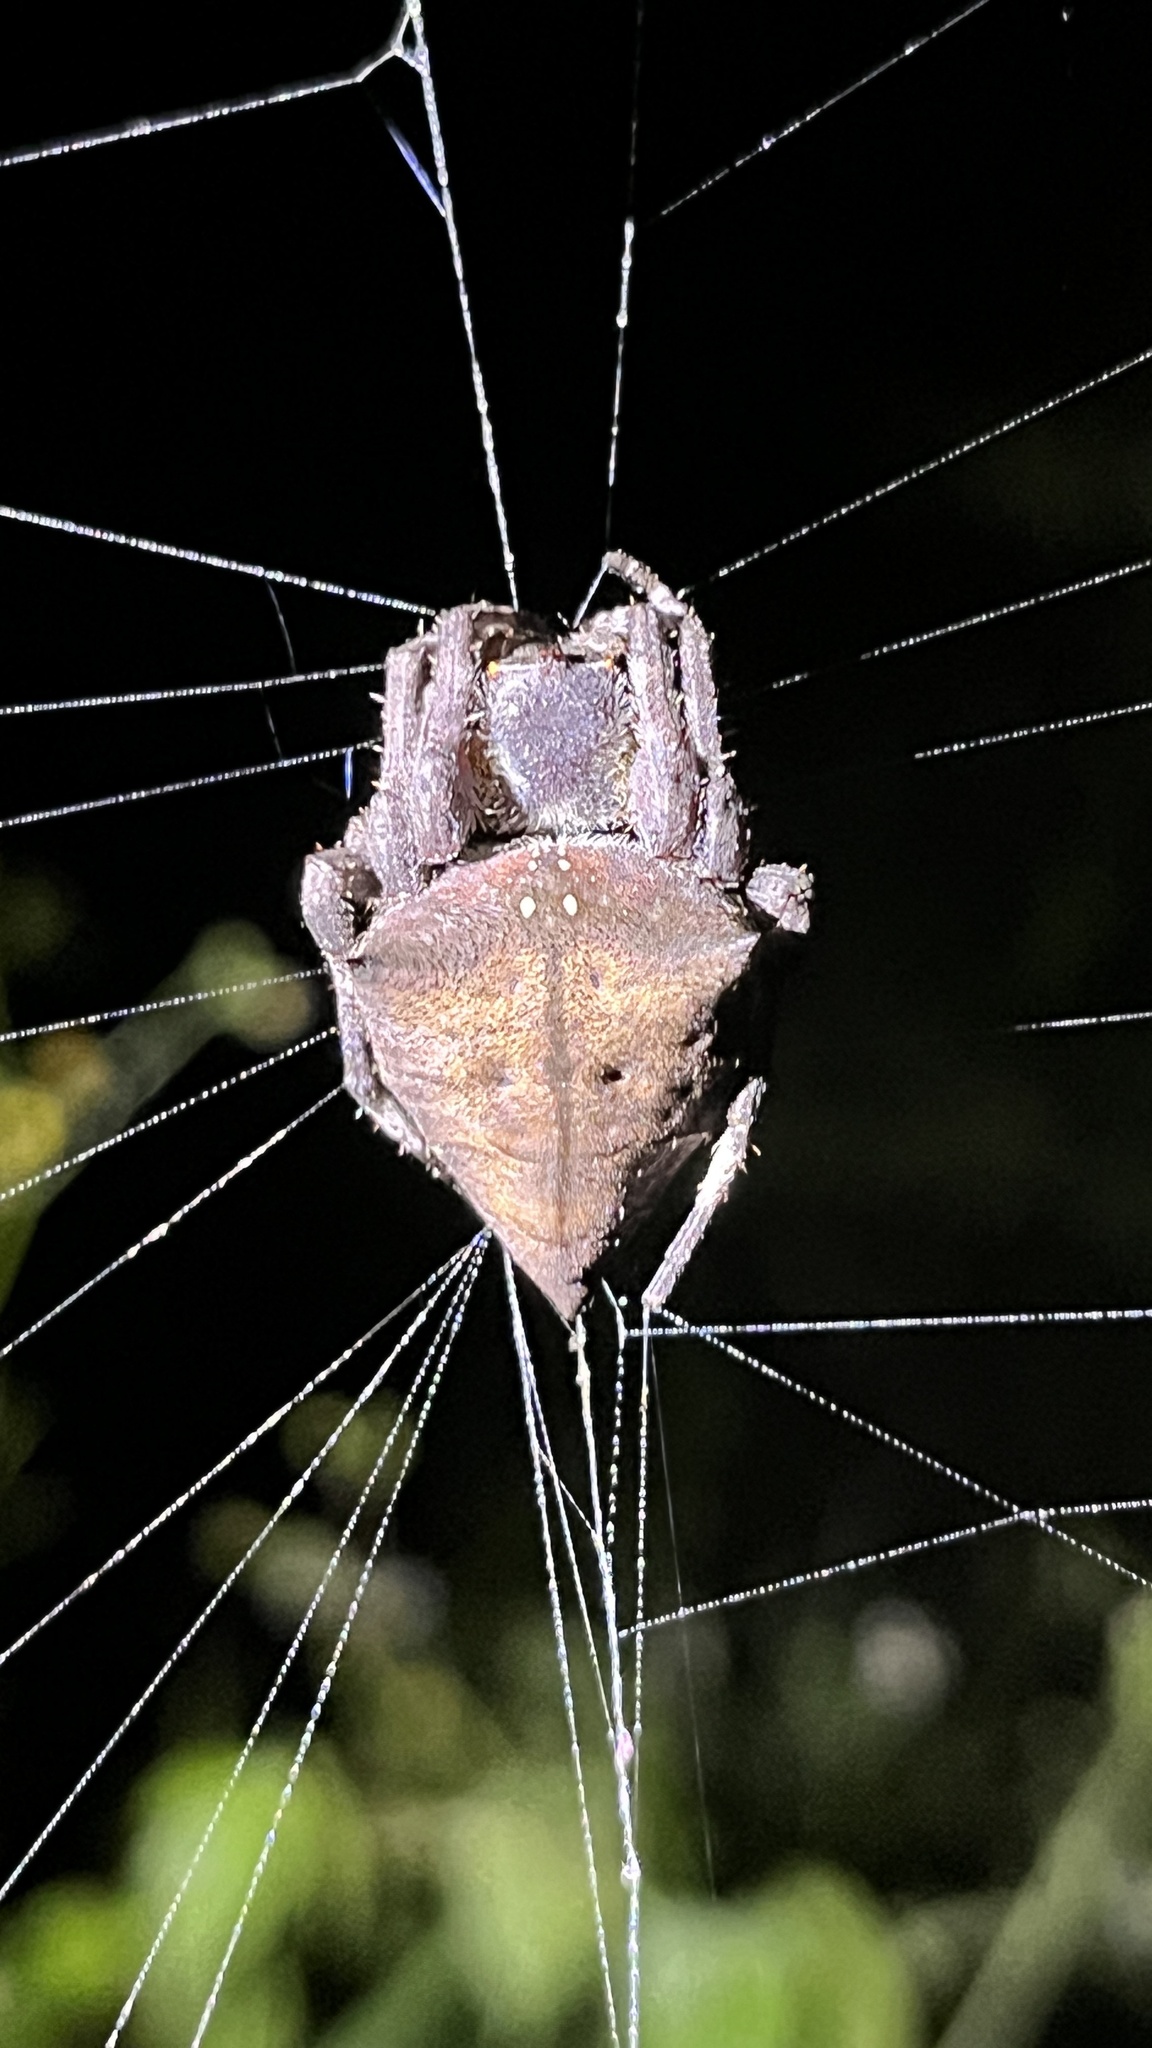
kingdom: Animalia
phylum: Arthropoda
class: Arachnida
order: Araneae
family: Araneidae
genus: Parawixia
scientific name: Parawixia dehaani
